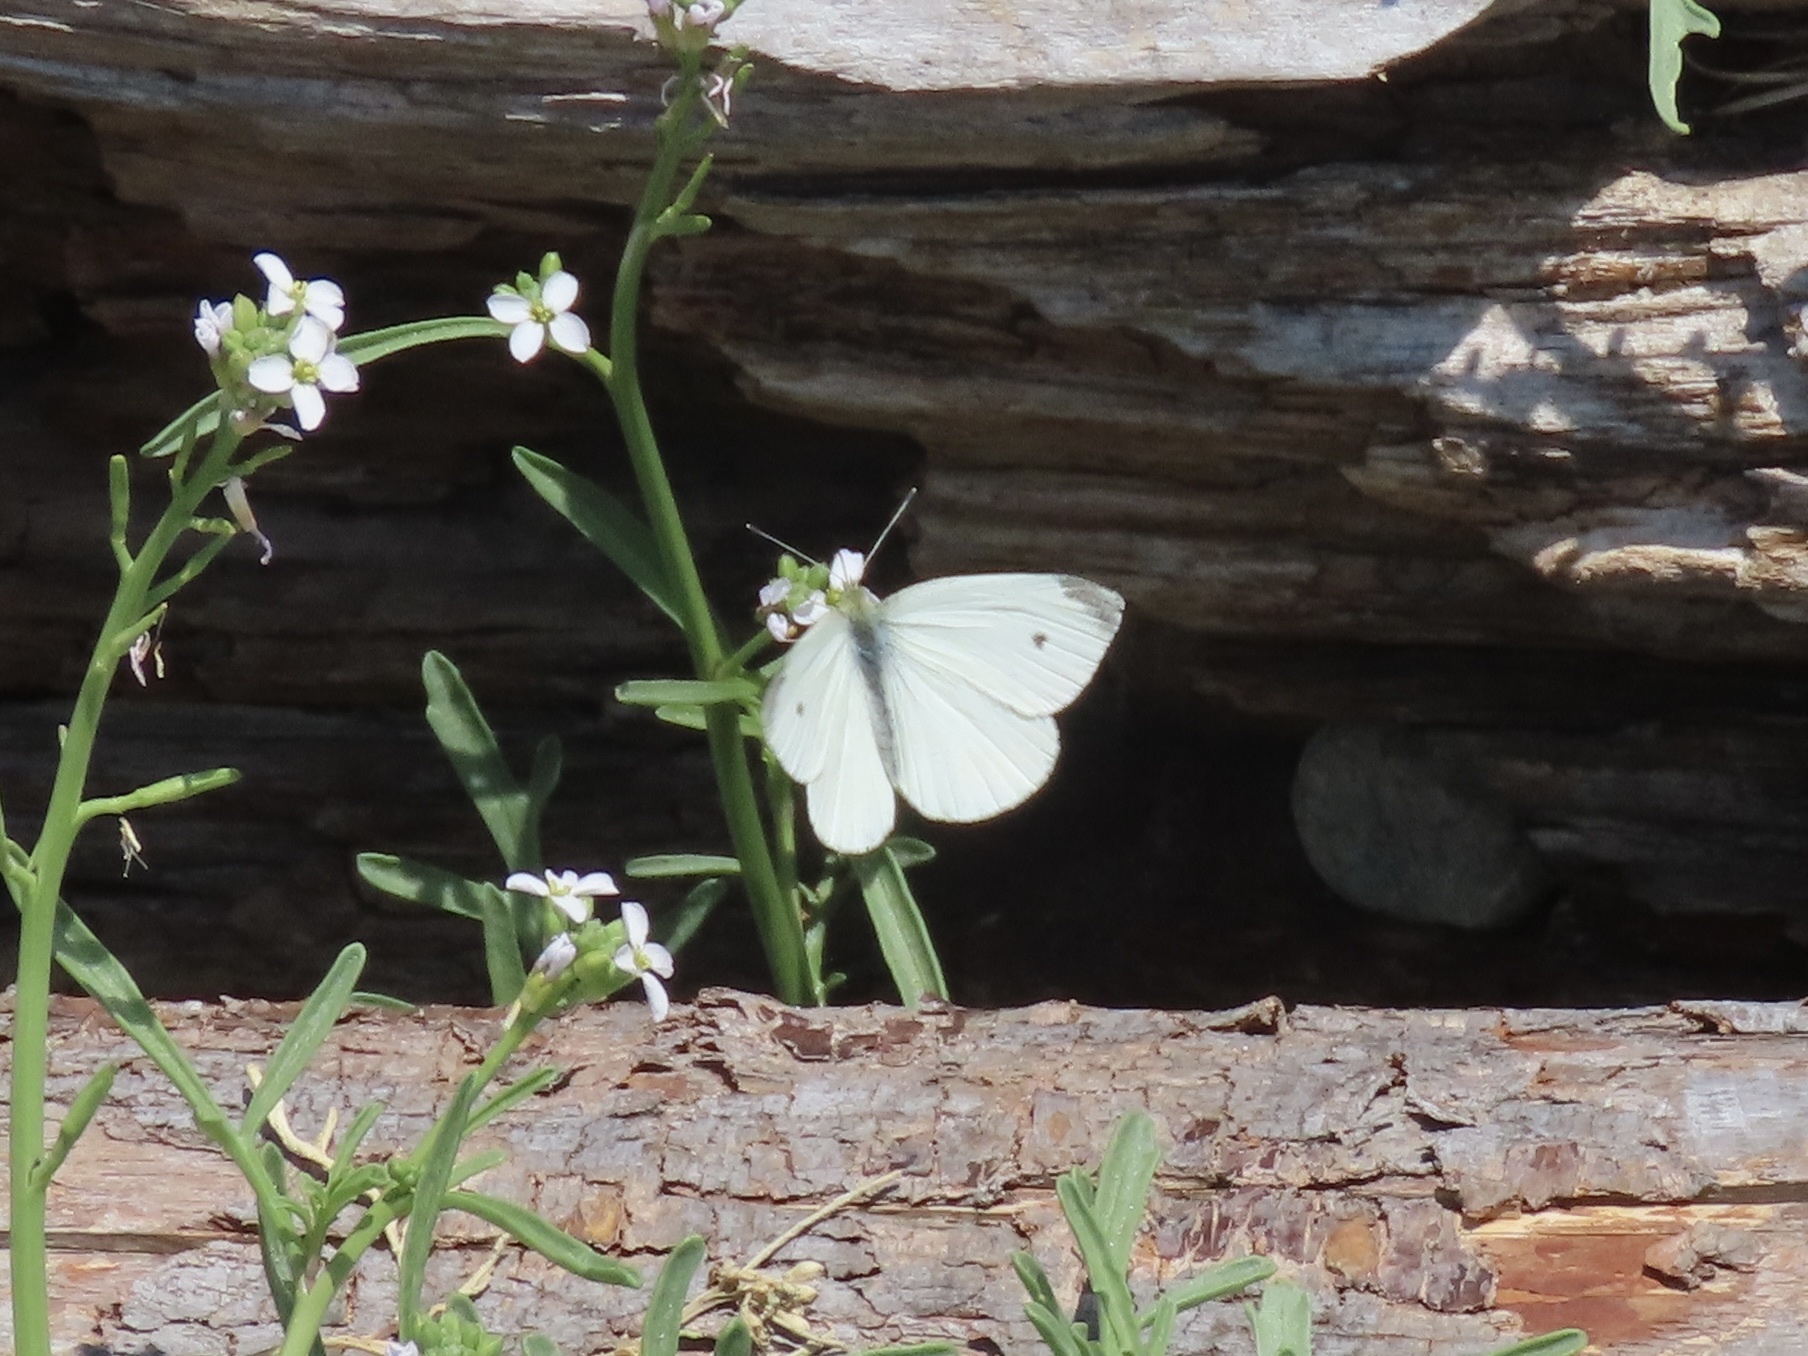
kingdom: Animalia
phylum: Arthropoda
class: Insecta
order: Lepidoptera
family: Pieridae
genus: Pieris
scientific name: Pieris rapae
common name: Small white
